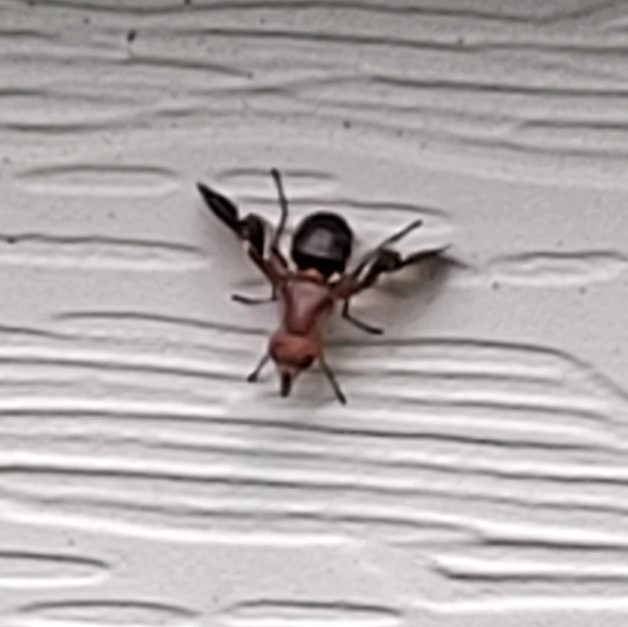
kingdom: Animalia
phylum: Arthropoda
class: Insecta
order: Diptera
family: Ulidiidae
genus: Delphinia
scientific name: Delphinia picta
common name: Common picture-winged fly
